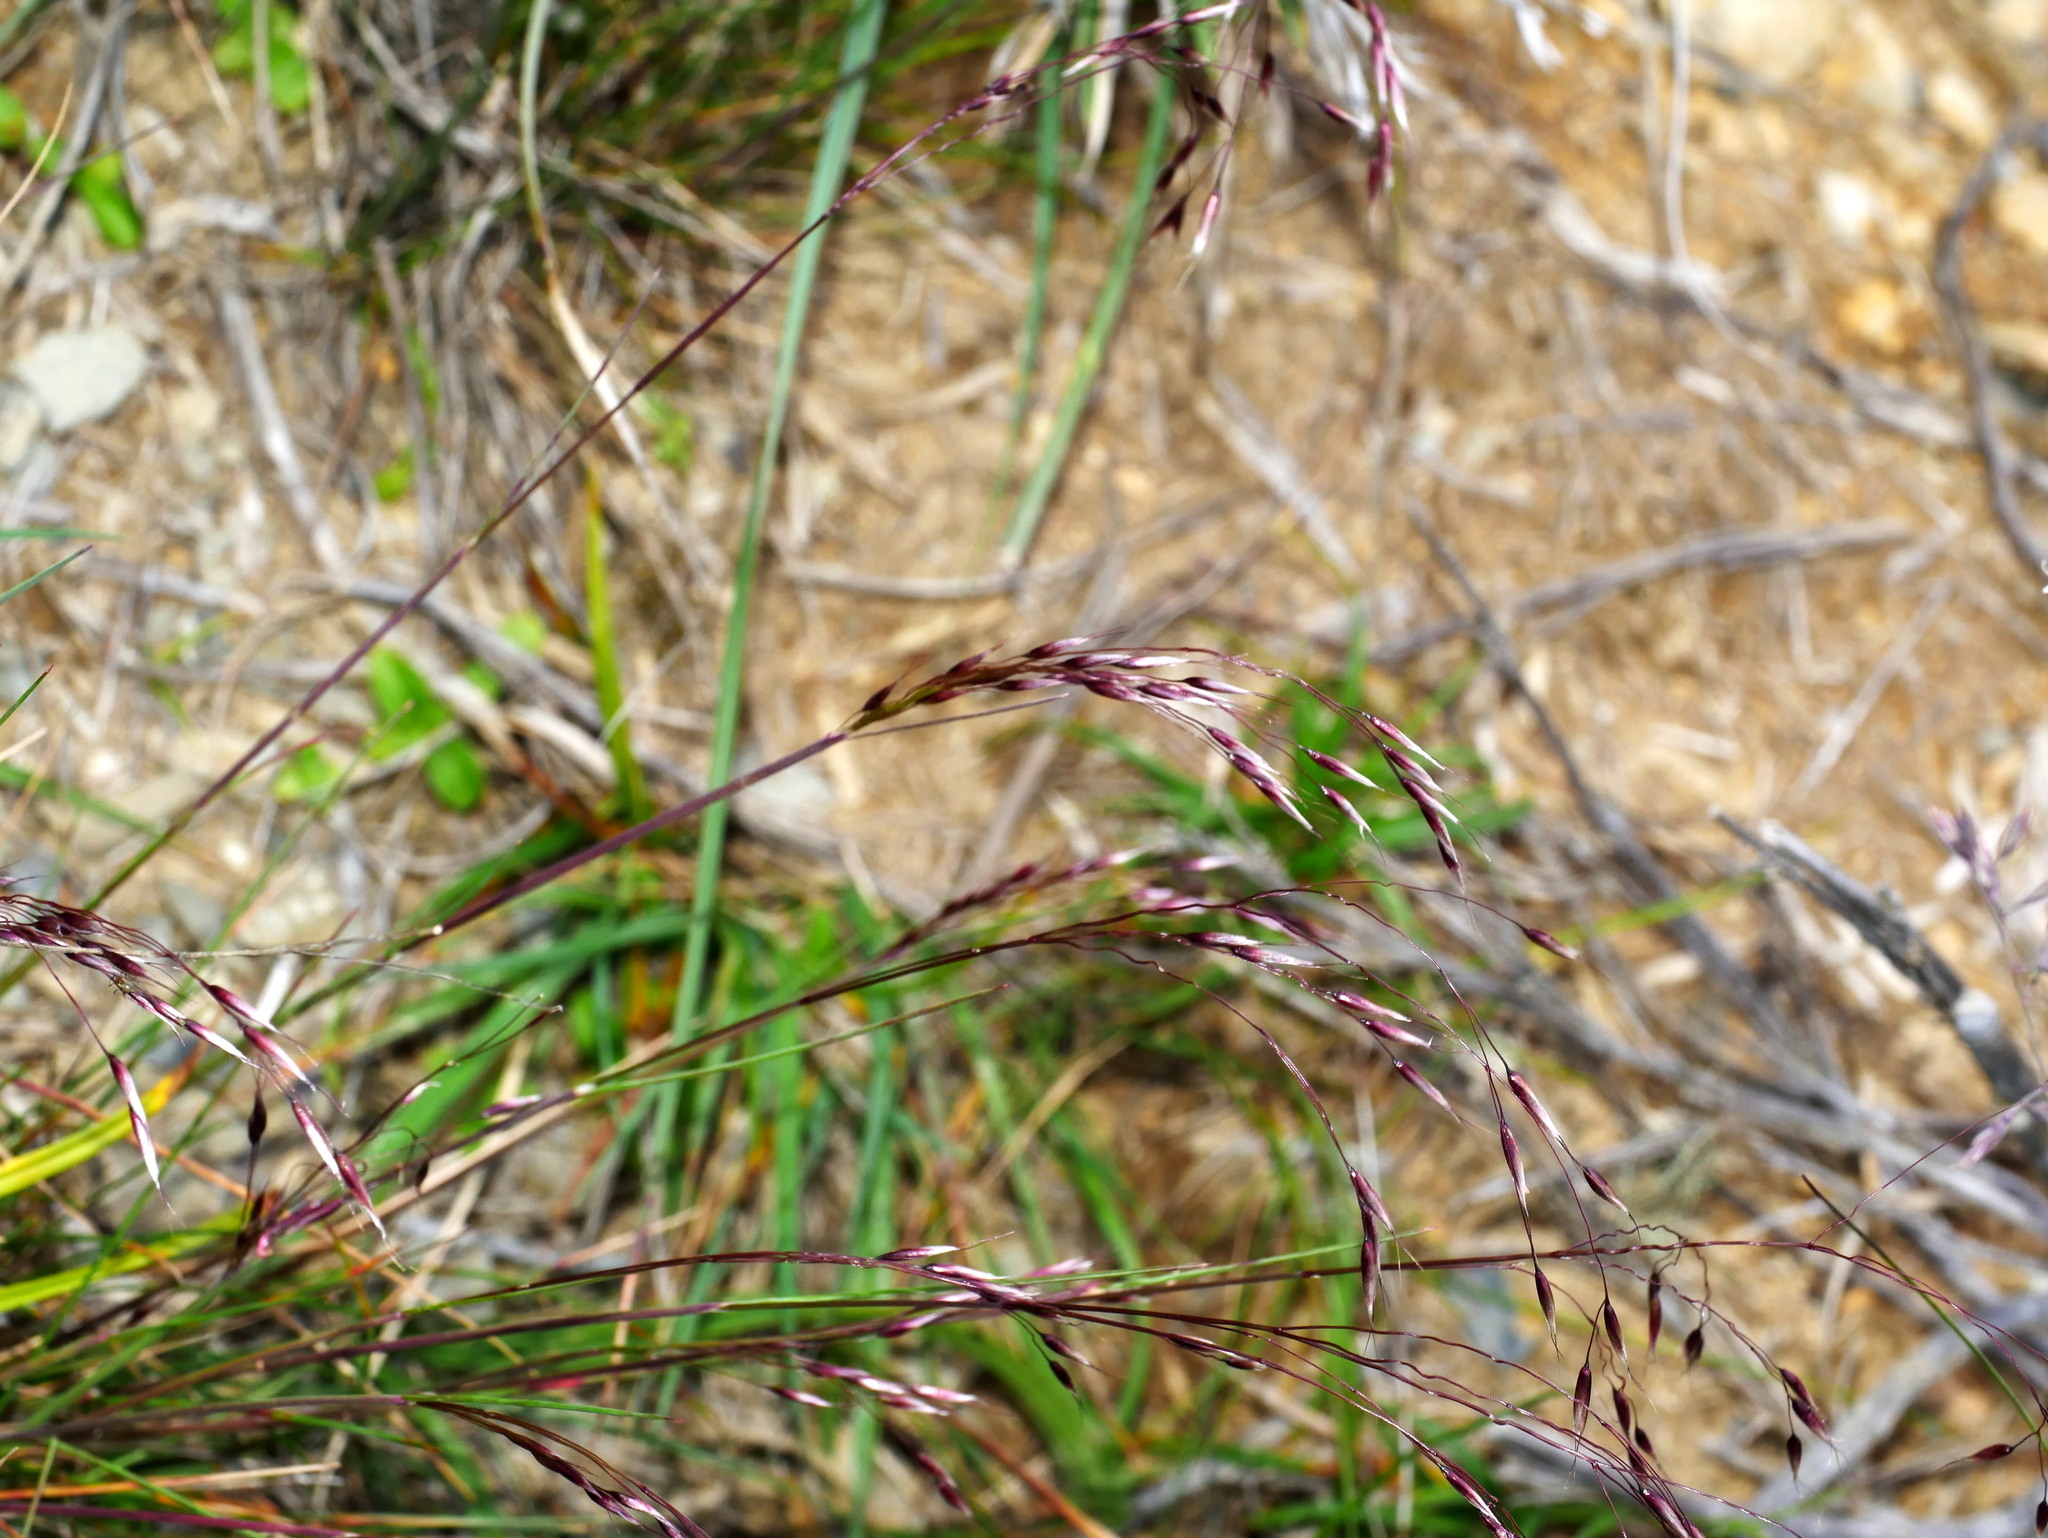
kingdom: Plantae
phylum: Tracheophyta
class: Liliopsida
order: Poales
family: Poaceae
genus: Avenella
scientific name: Avenella flexuosa
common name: Wavy hairgrass
